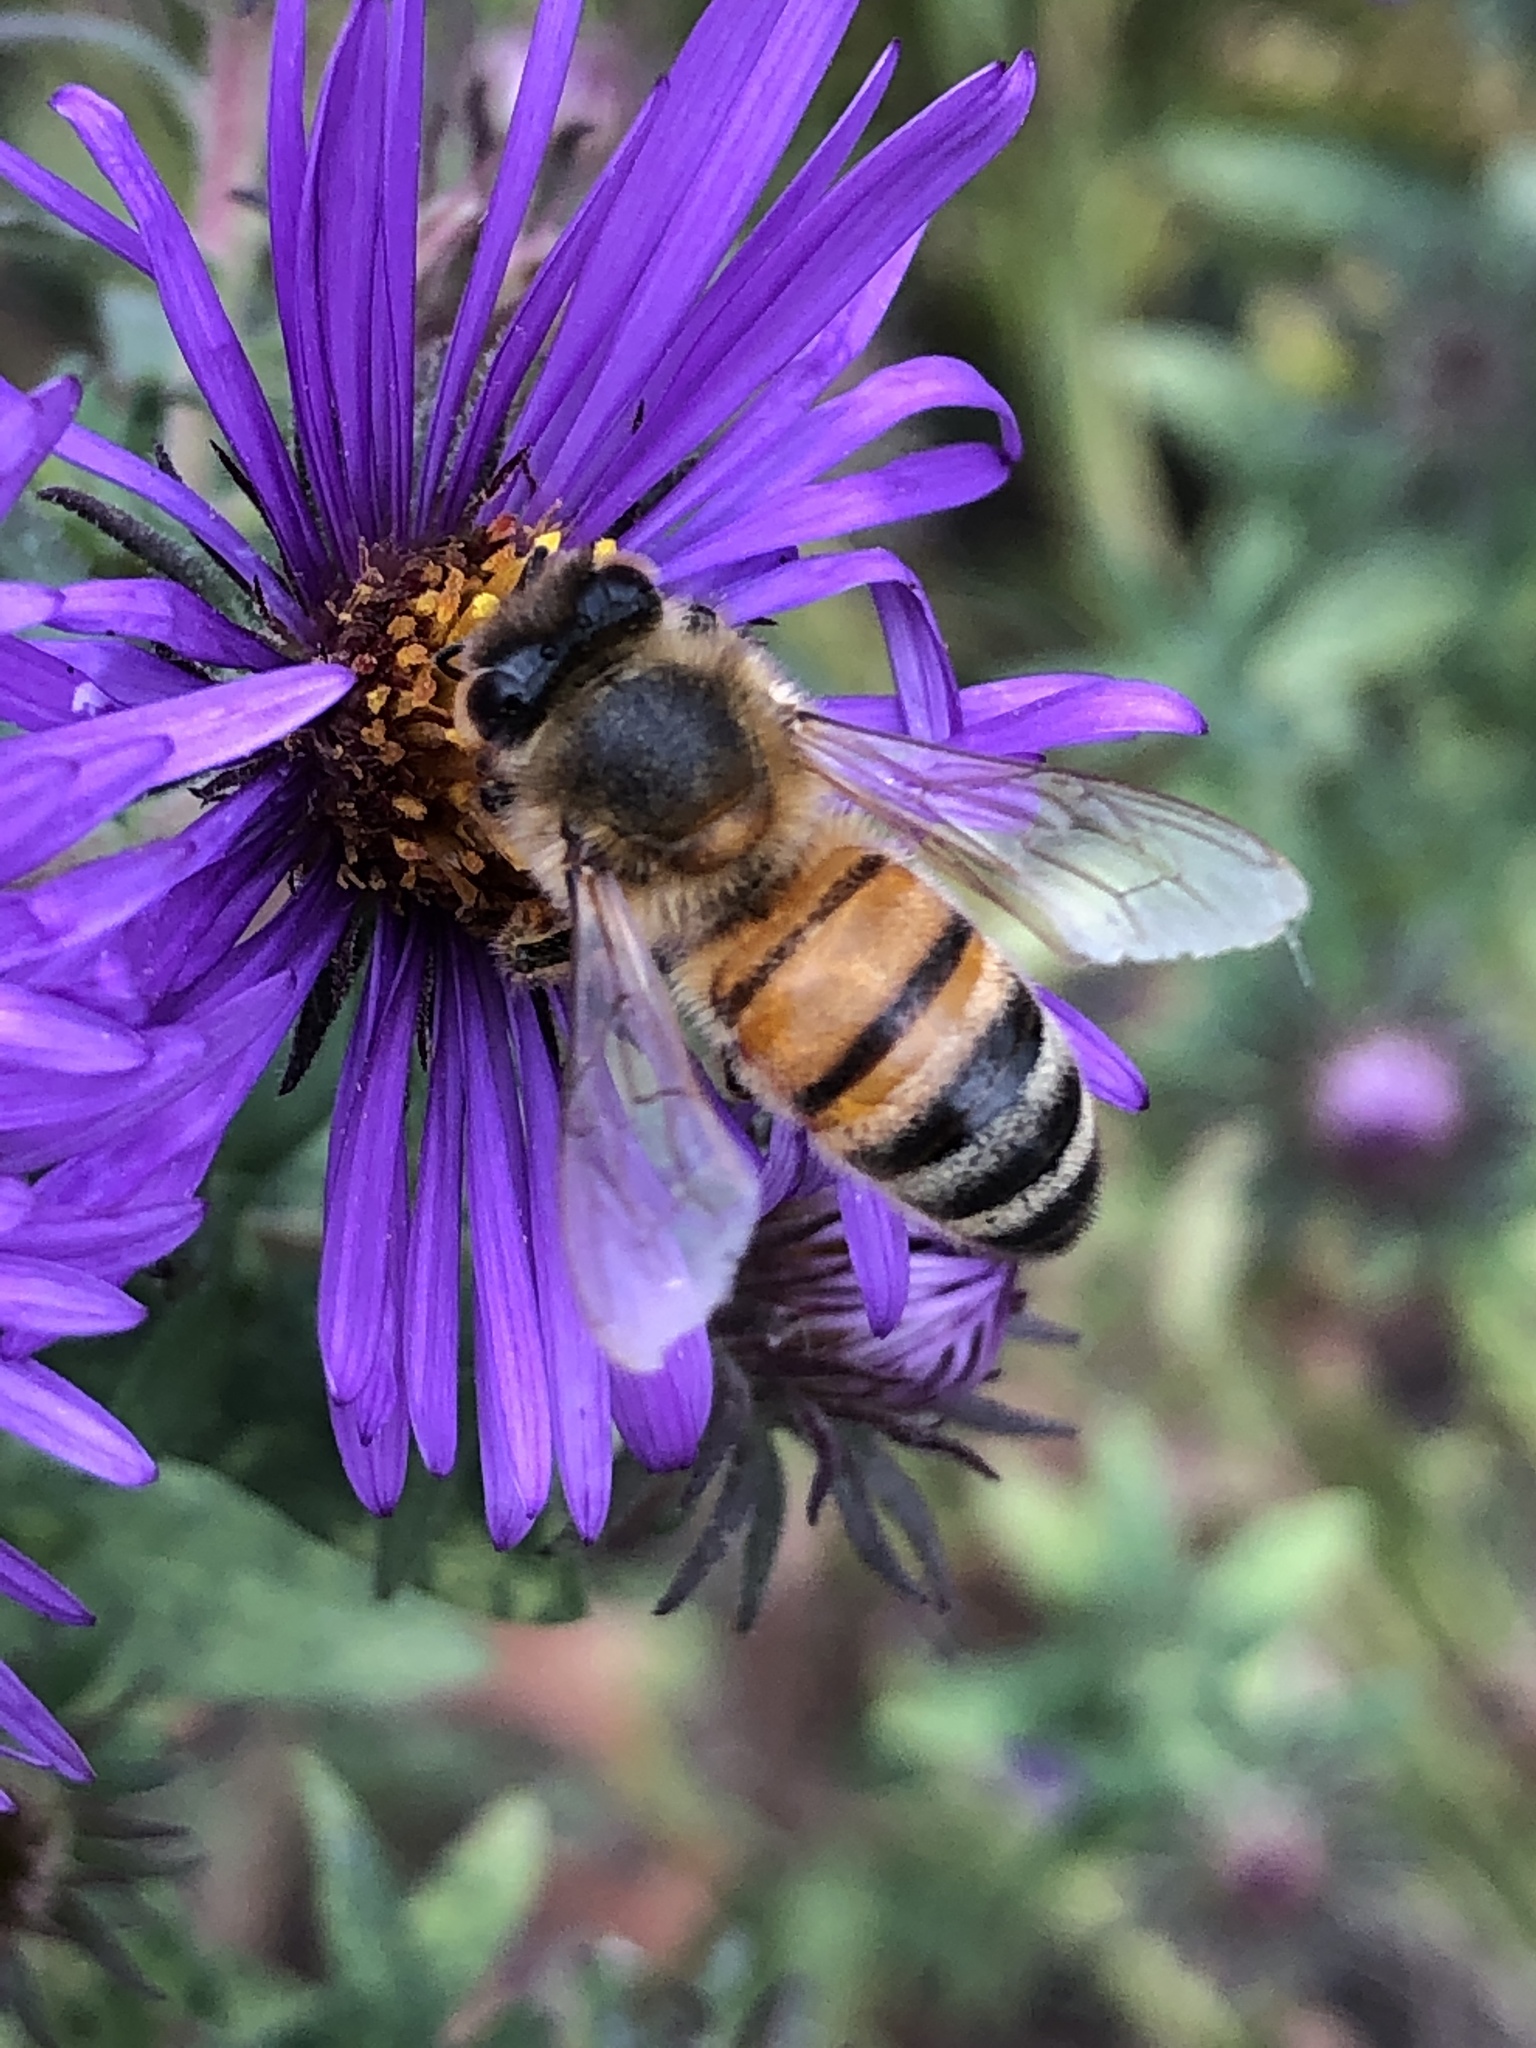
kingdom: Animalia
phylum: Arthropoda
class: Insecta
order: Hymenoptera
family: Apidae
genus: Apis
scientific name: Apis mellifera
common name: Honey bee
